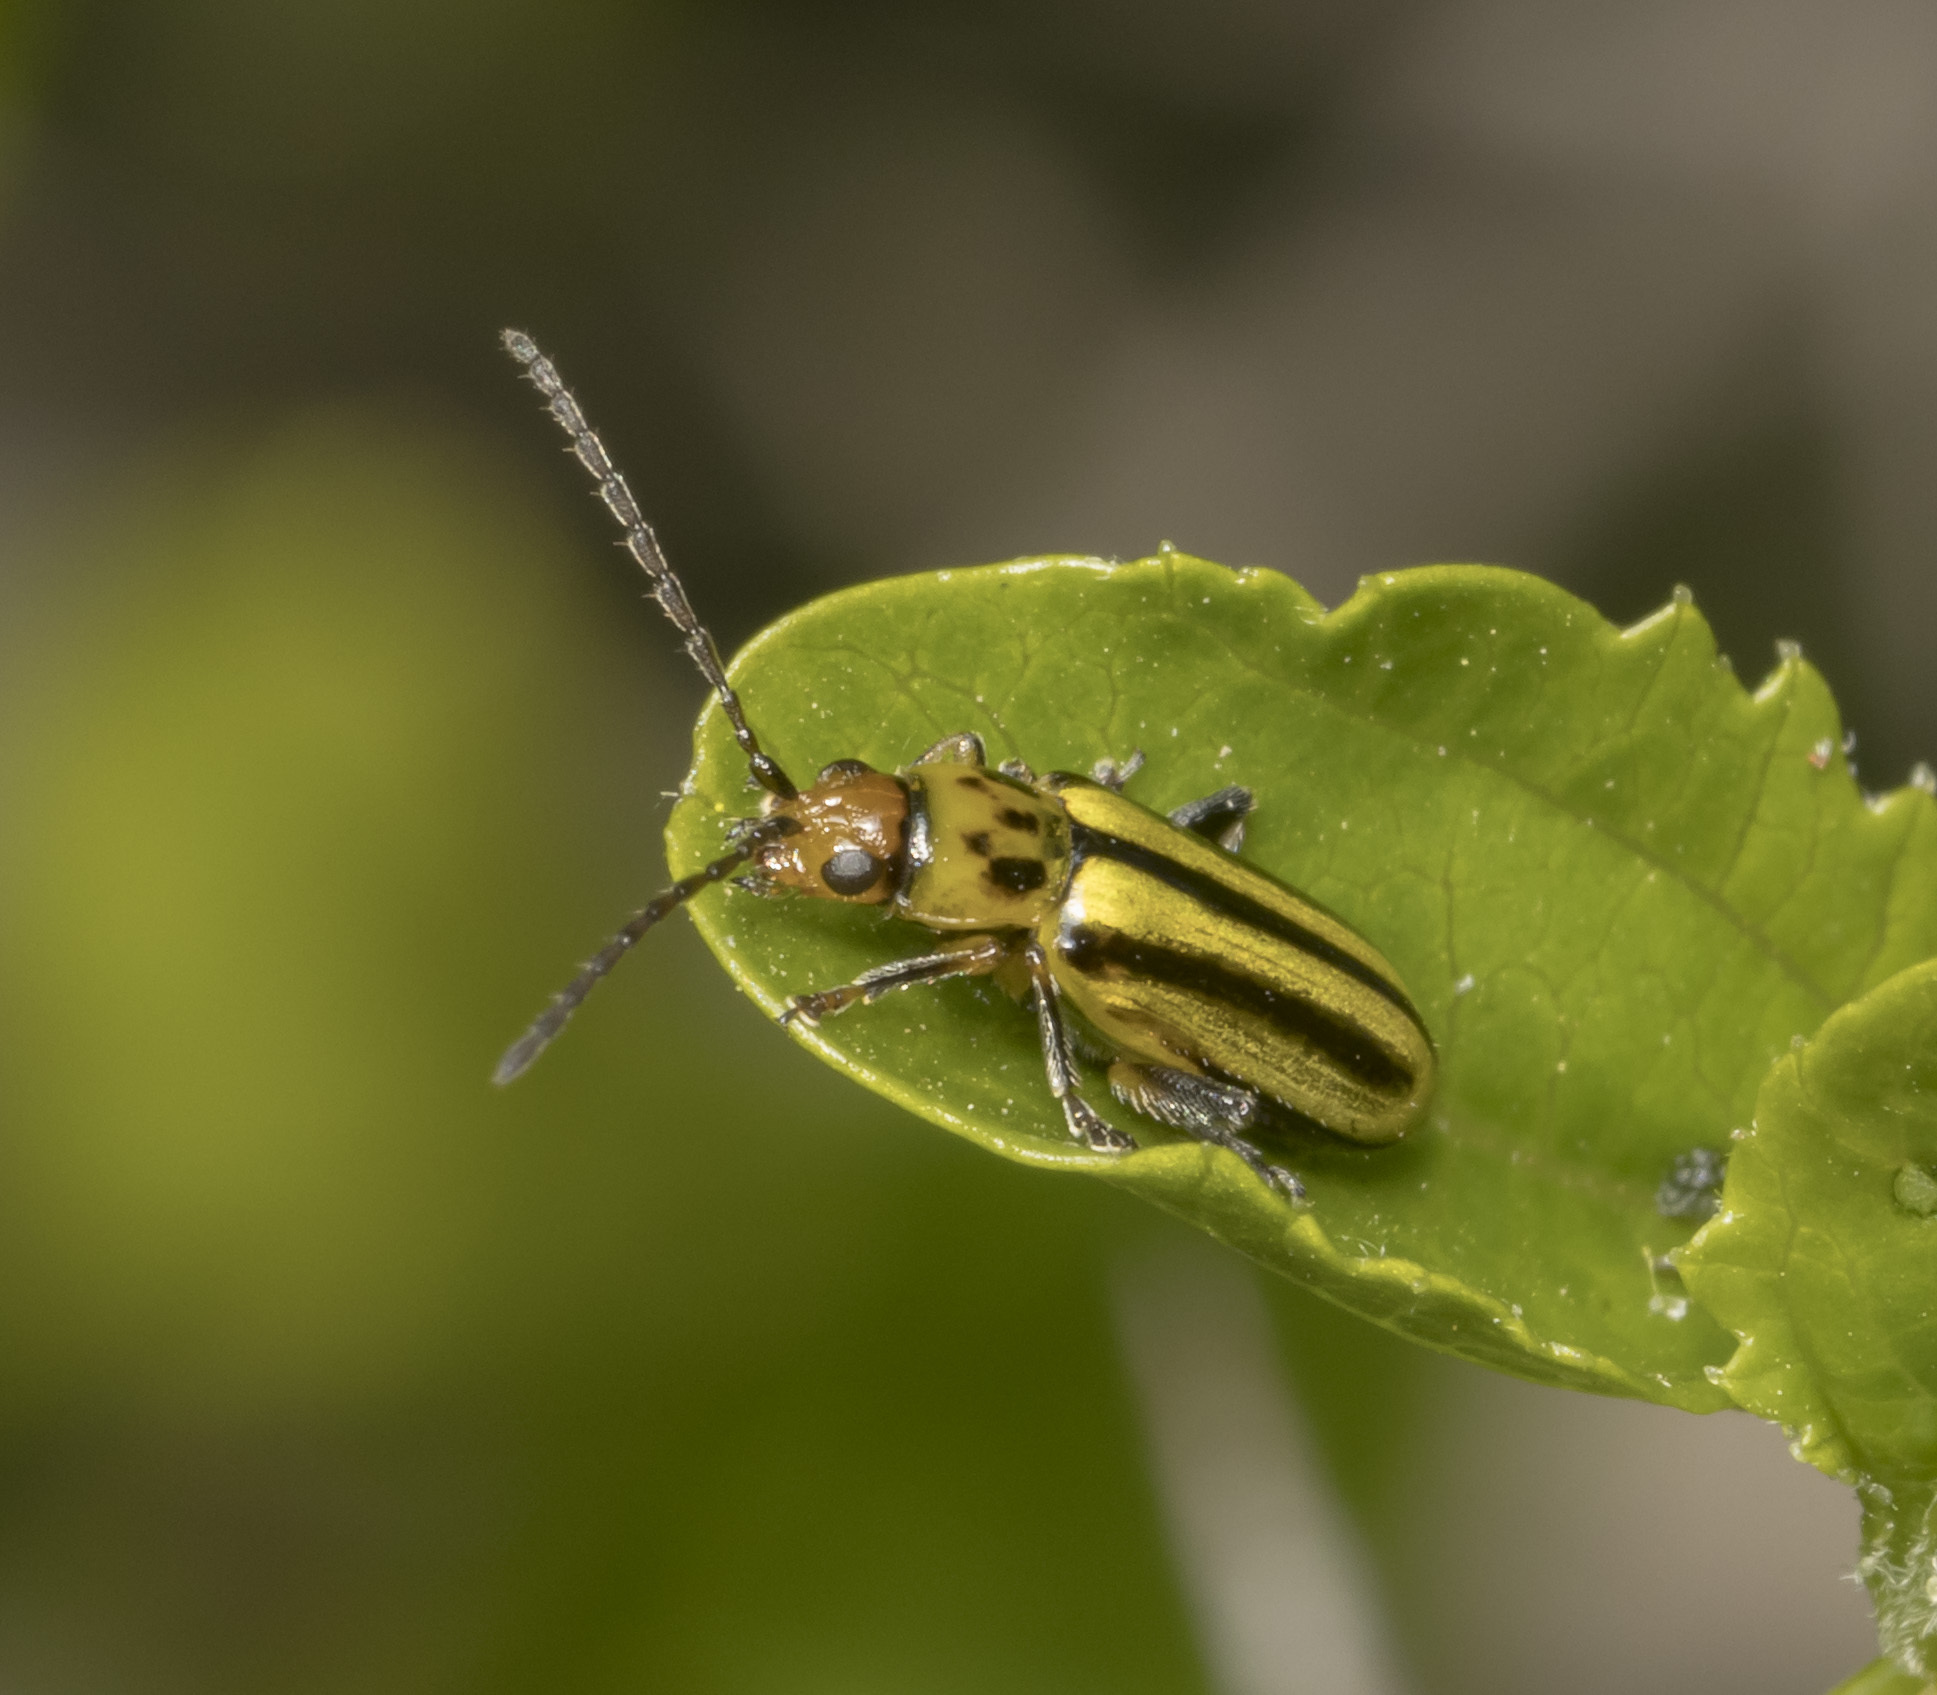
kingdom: Animalia
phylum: Arthropoda
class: Insecta
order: Coleoptera
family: Chrysomelidae
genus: Grammicopterus
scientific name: Grammicopterus
